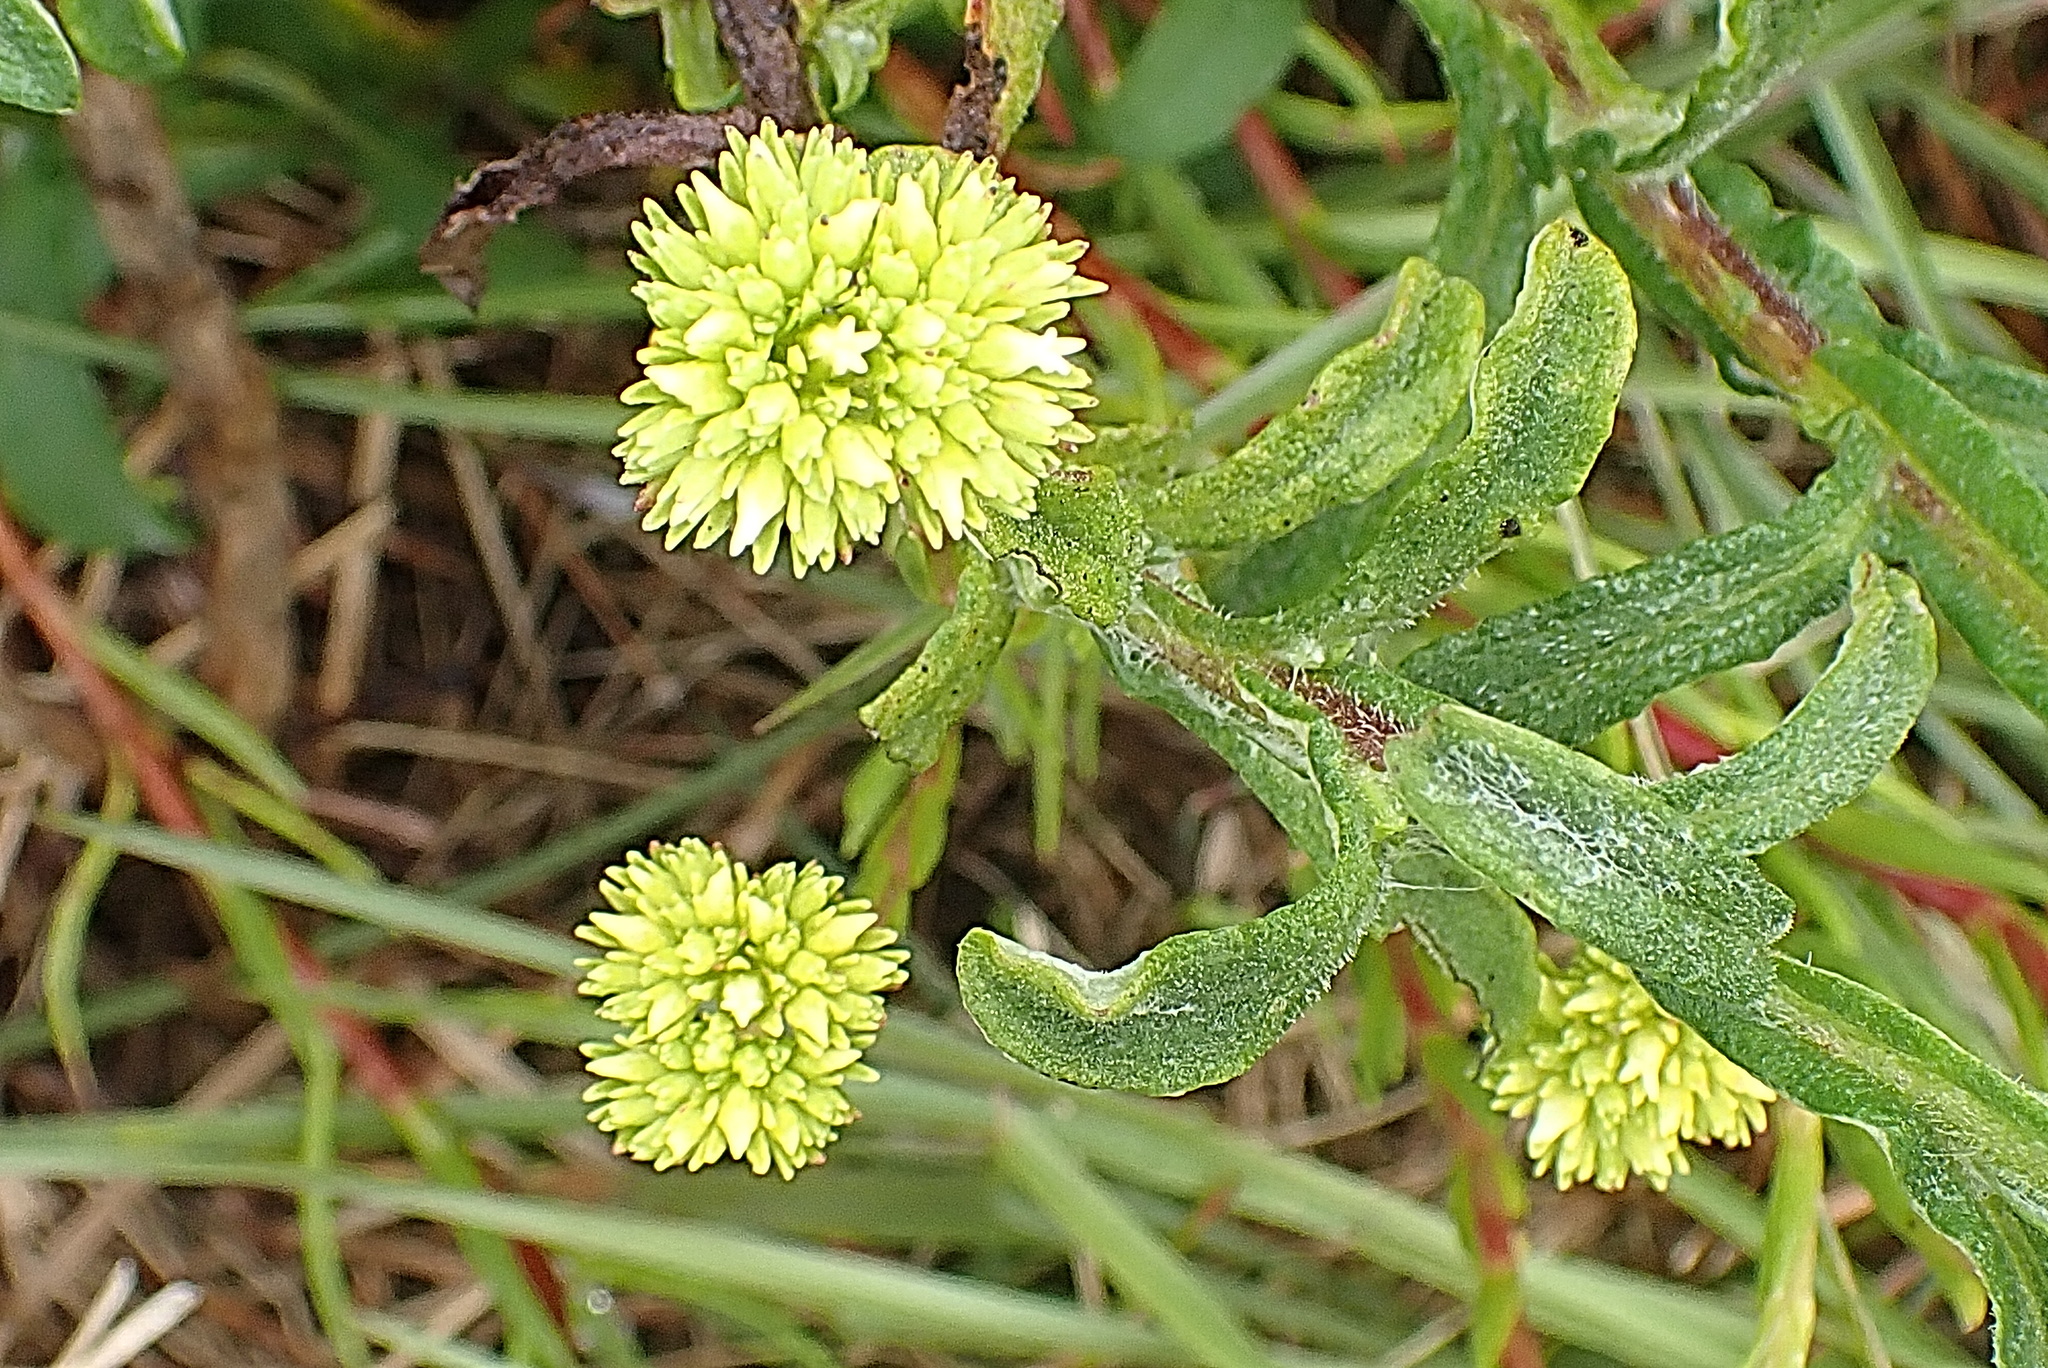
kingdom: Plantae
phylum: Tracheophyta
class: Magnoliopsida
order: Asterales
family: Asteraceae
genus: Helichrysum
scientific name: Helichrysum odoratissimum
